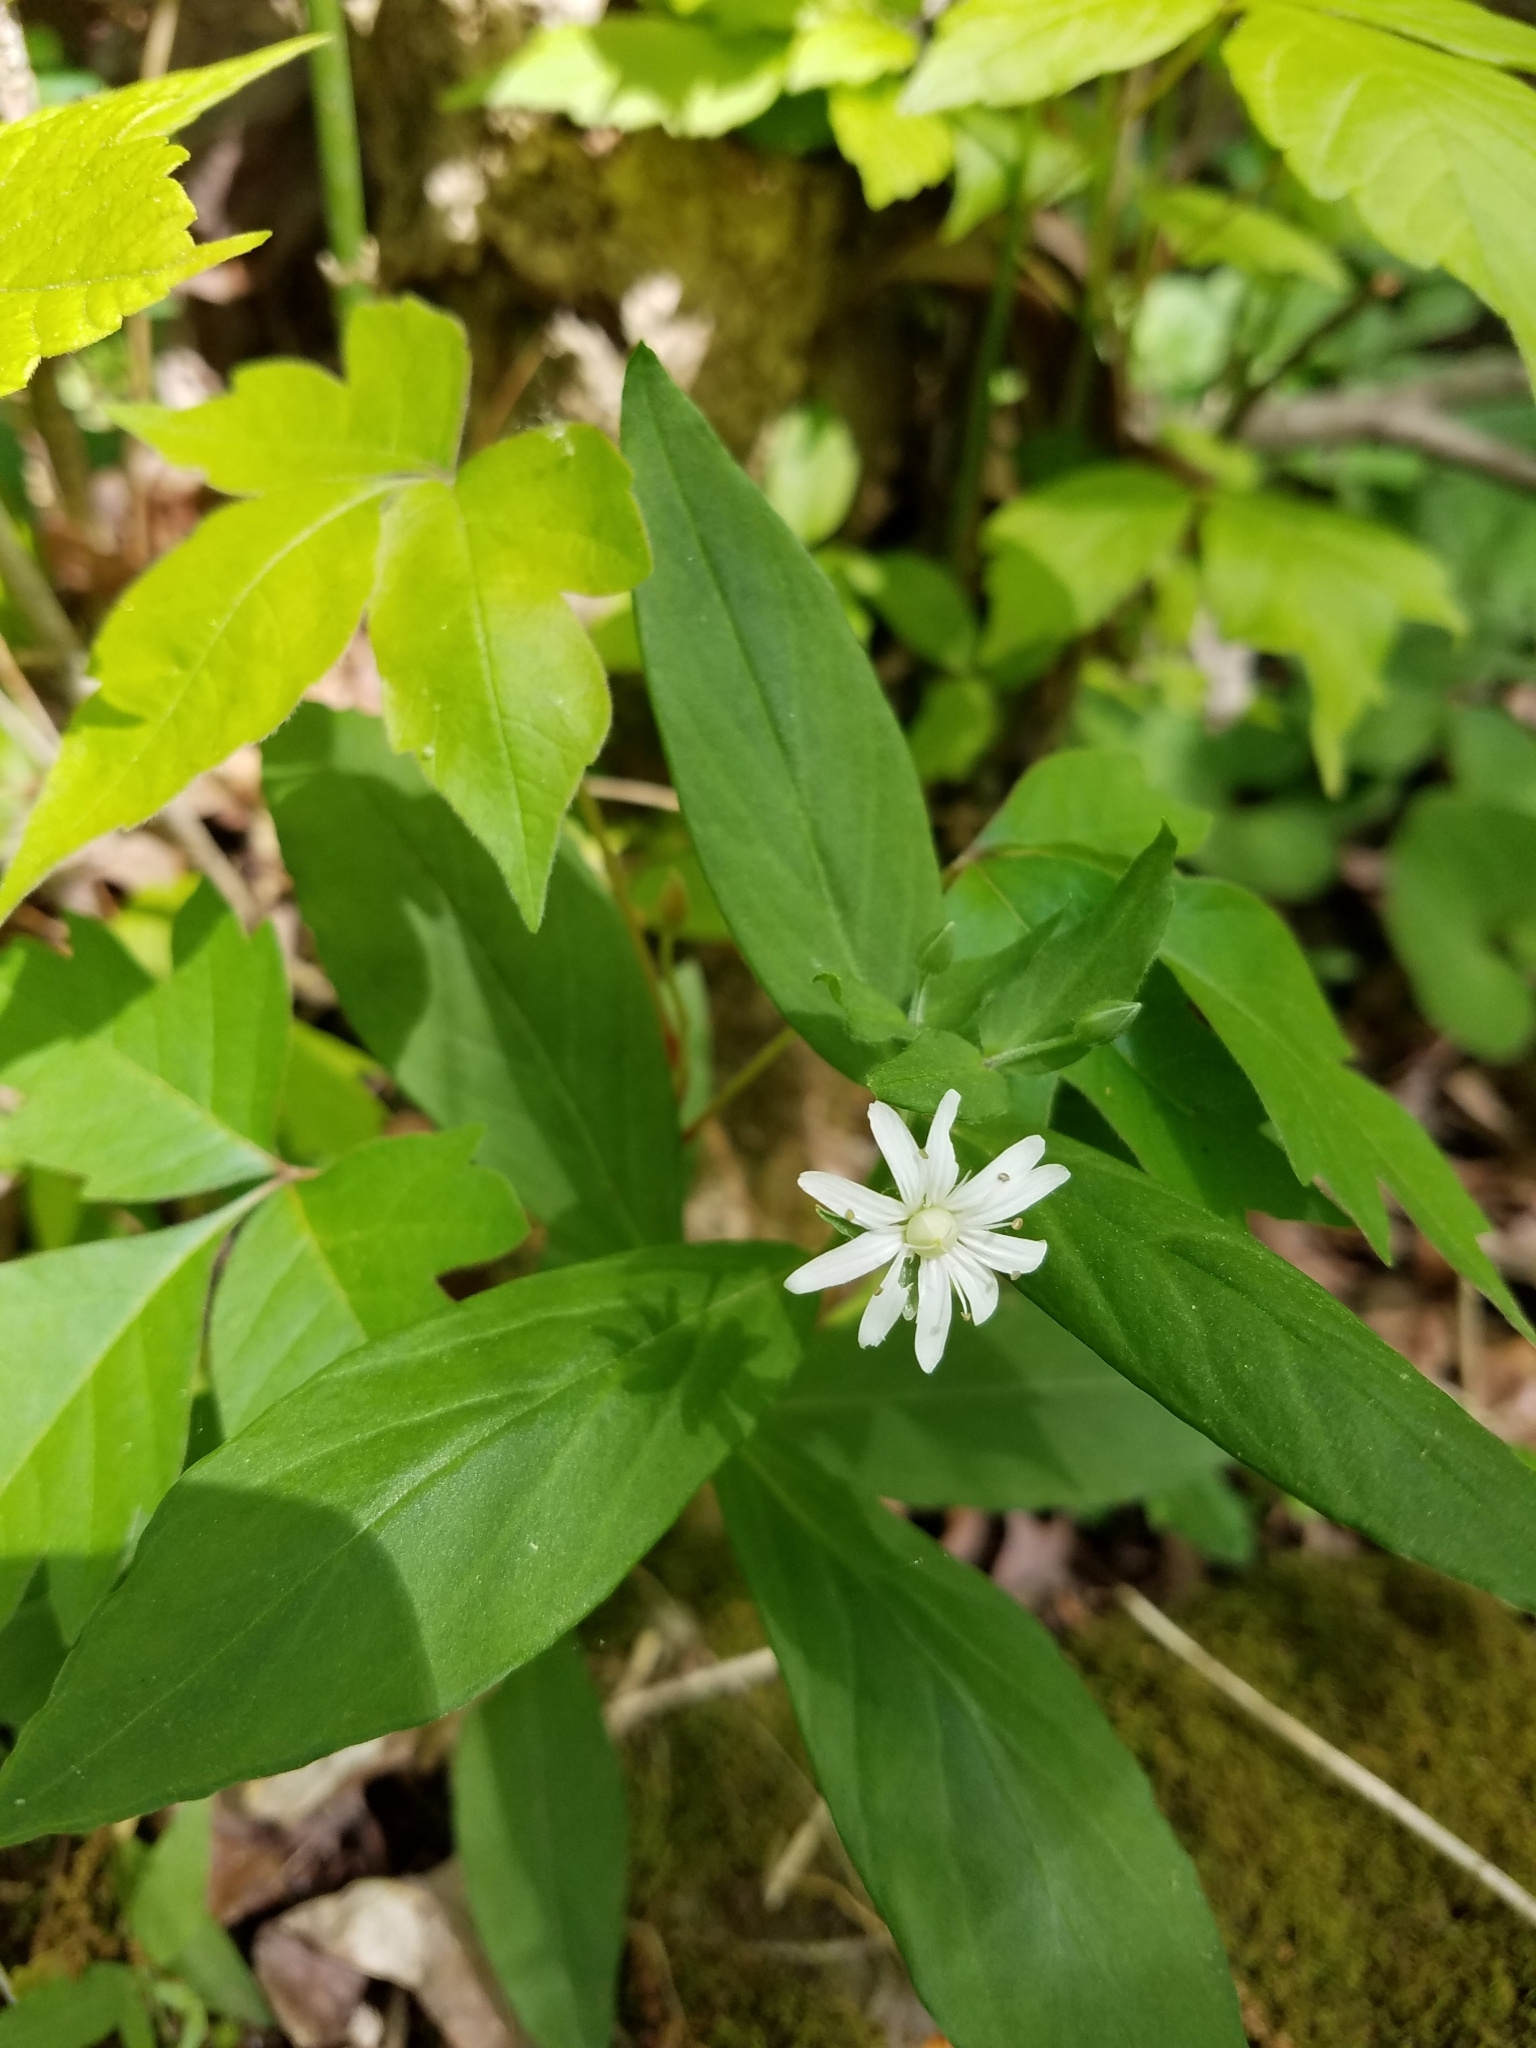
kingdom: Plantae
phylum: Tracheophyta
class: Magnoliopsida
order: Caryophyllales
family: Caryophyllaceae
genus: Stellaria
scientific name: Stellaria pubera
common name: Star chickweed
